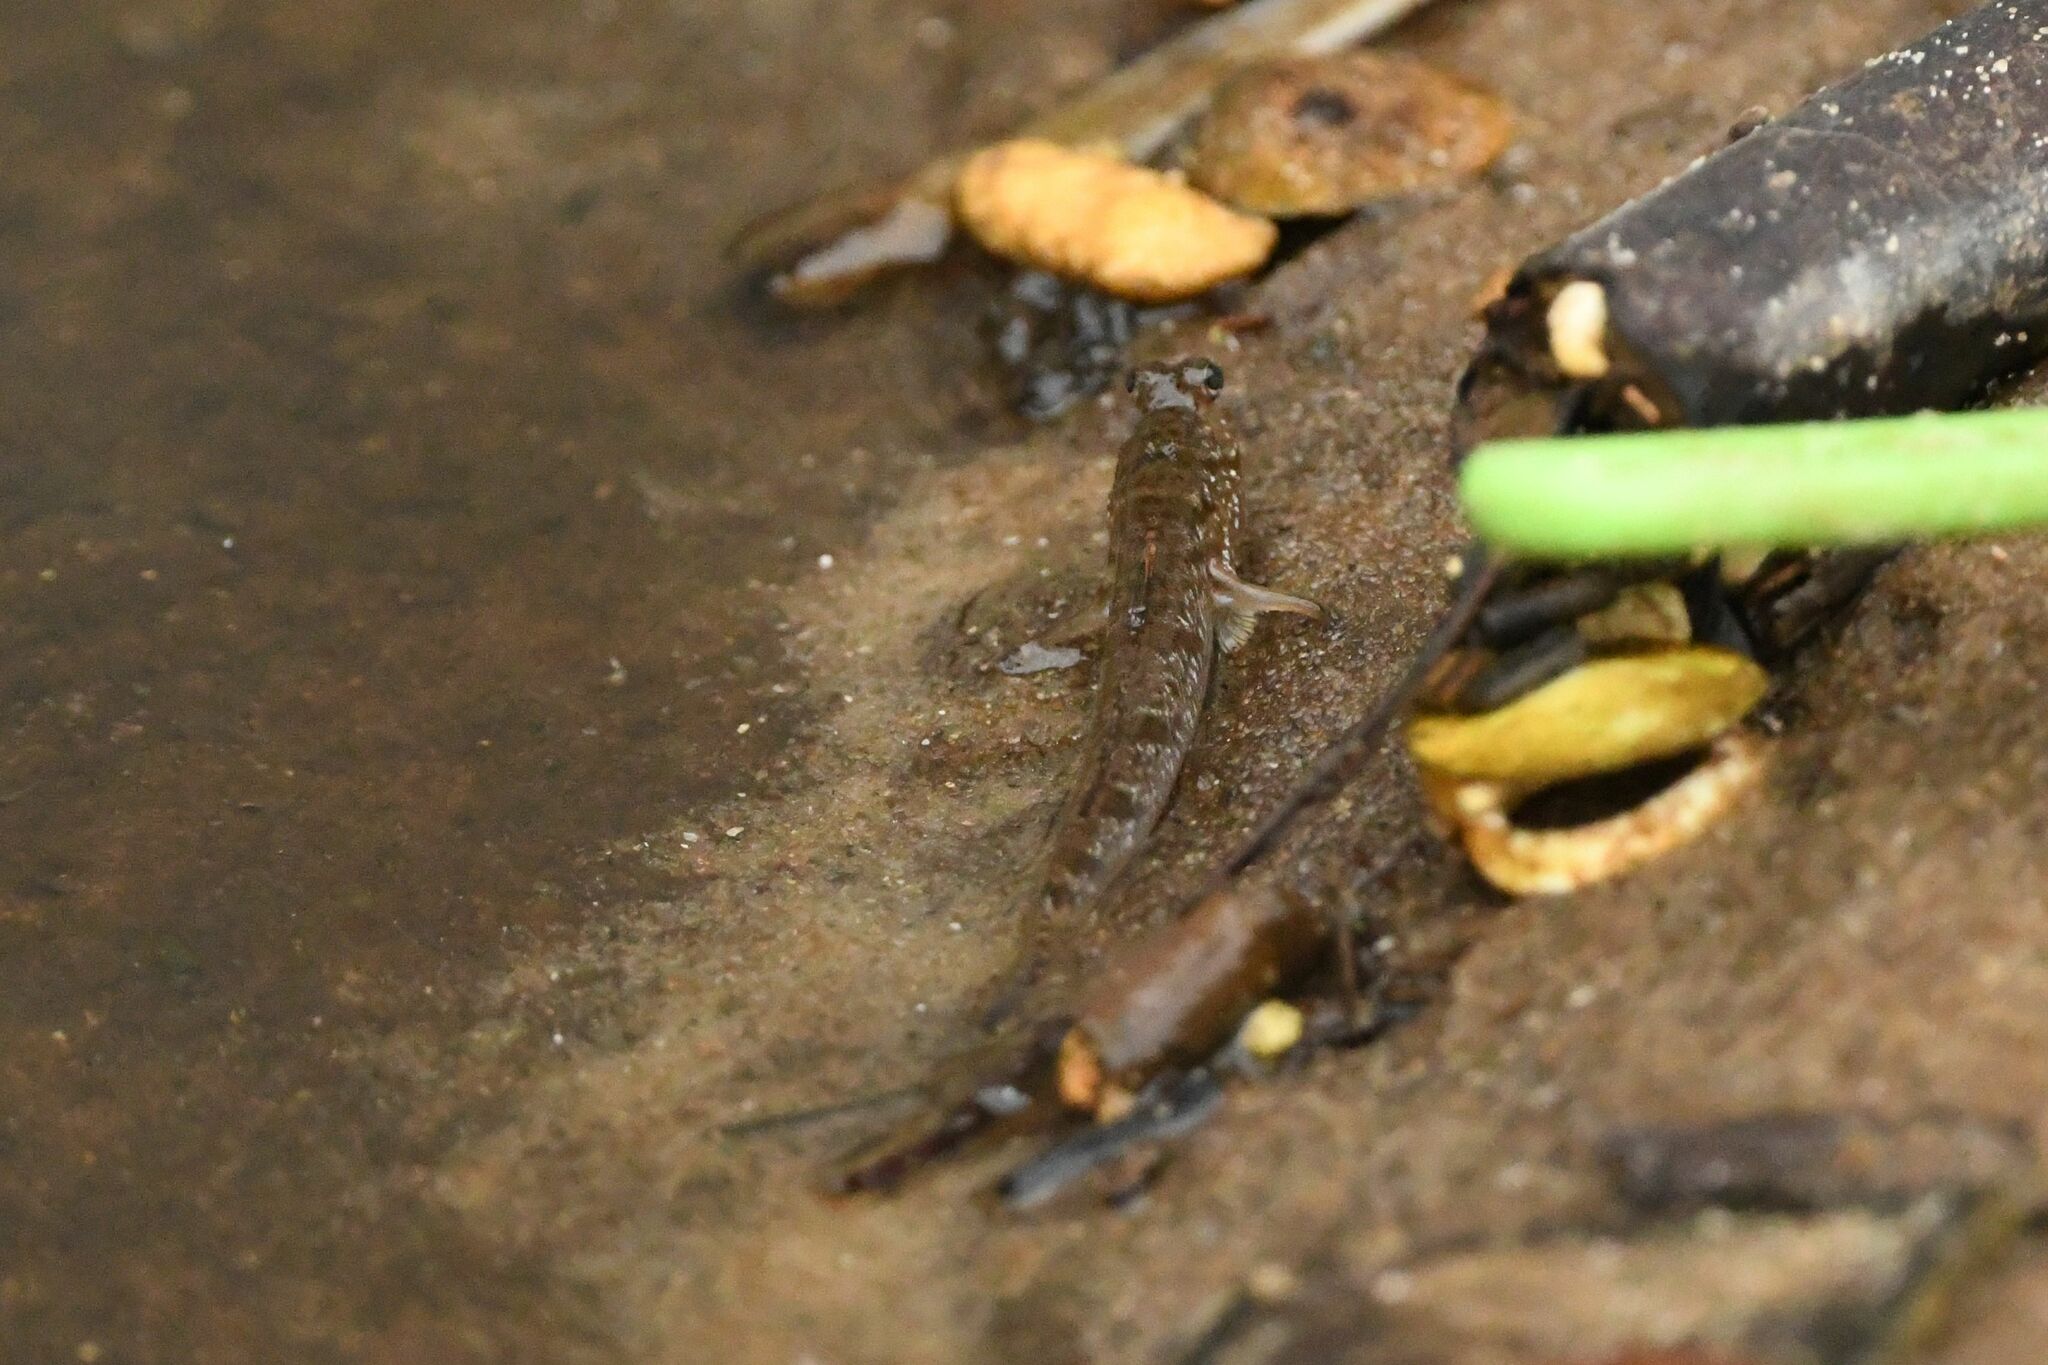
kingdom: Animalia
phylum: Chordata
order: Perciformes
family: Gobiidae
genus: Periophthalmus
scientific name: Periophthalmus barbarus
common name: Atlantic mudskipper
